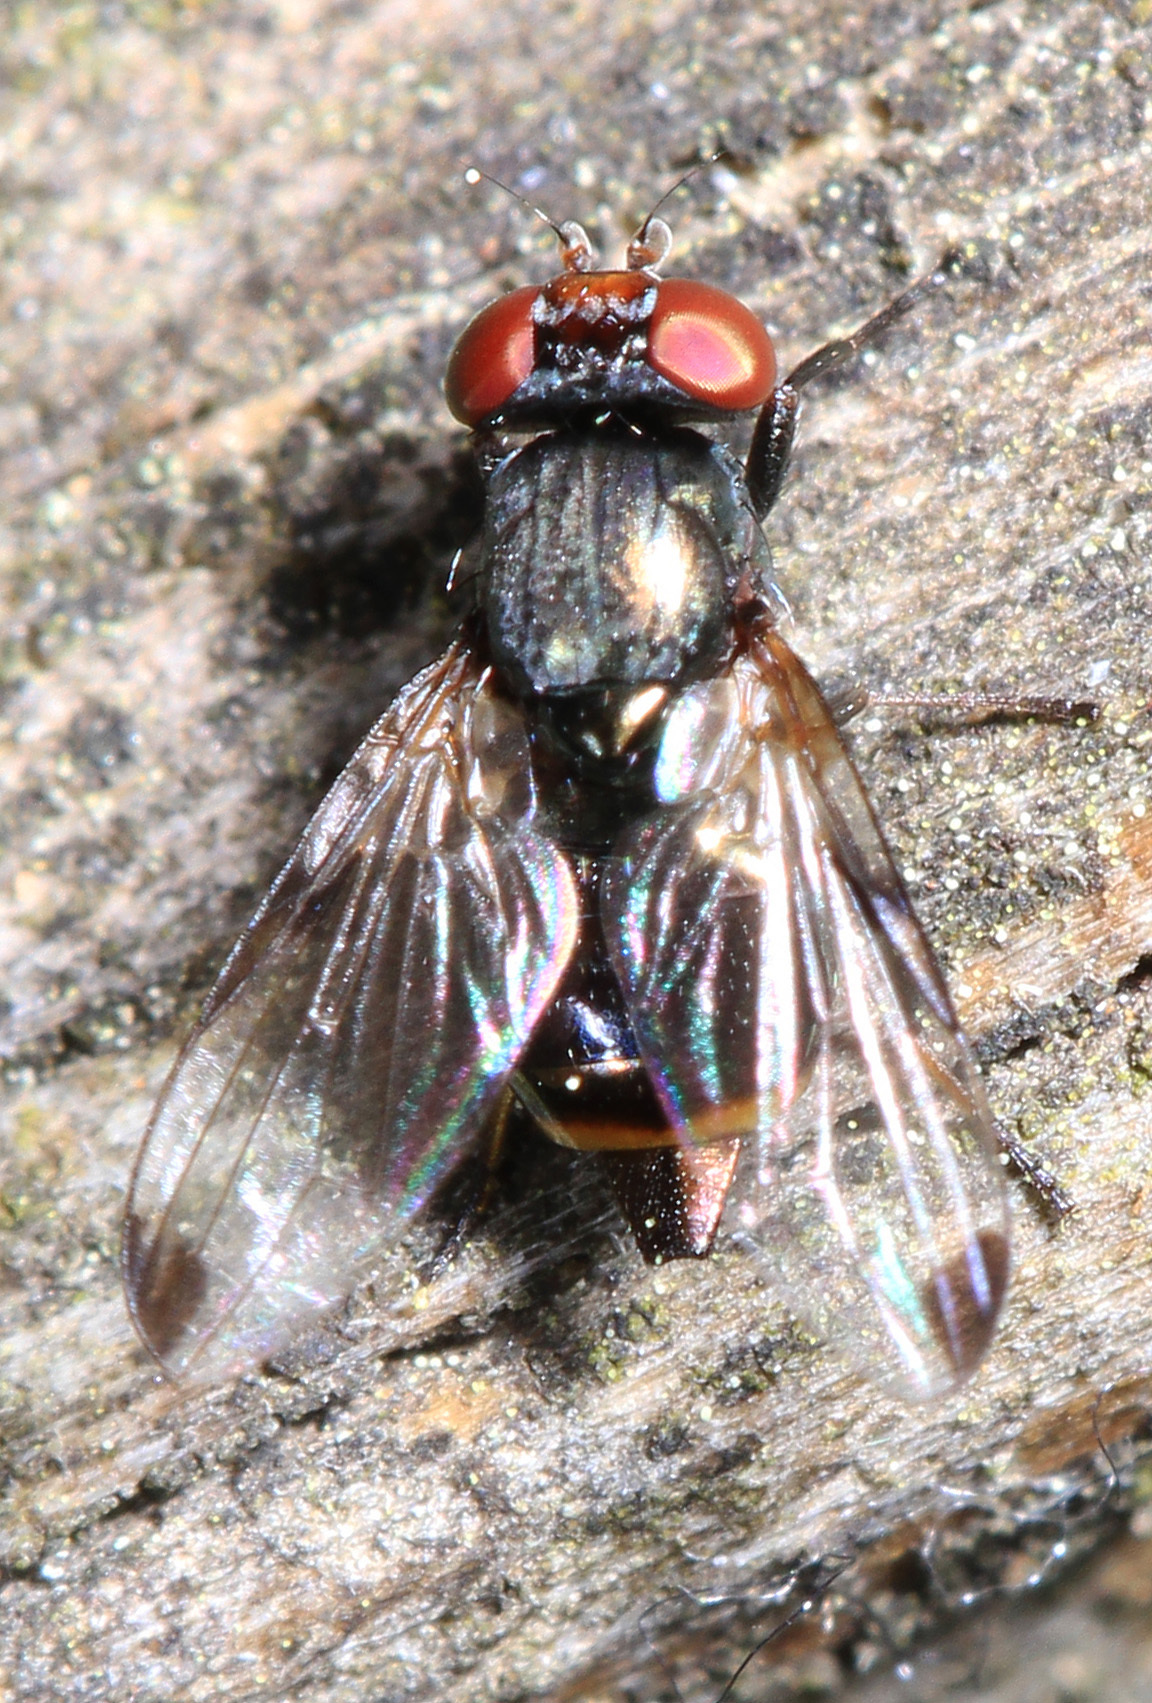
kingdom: Animalia
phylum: Arthropoda
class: Insecta
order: Diptera
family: Ulidiidae
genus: Euxesta
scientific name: Euxesta notata
